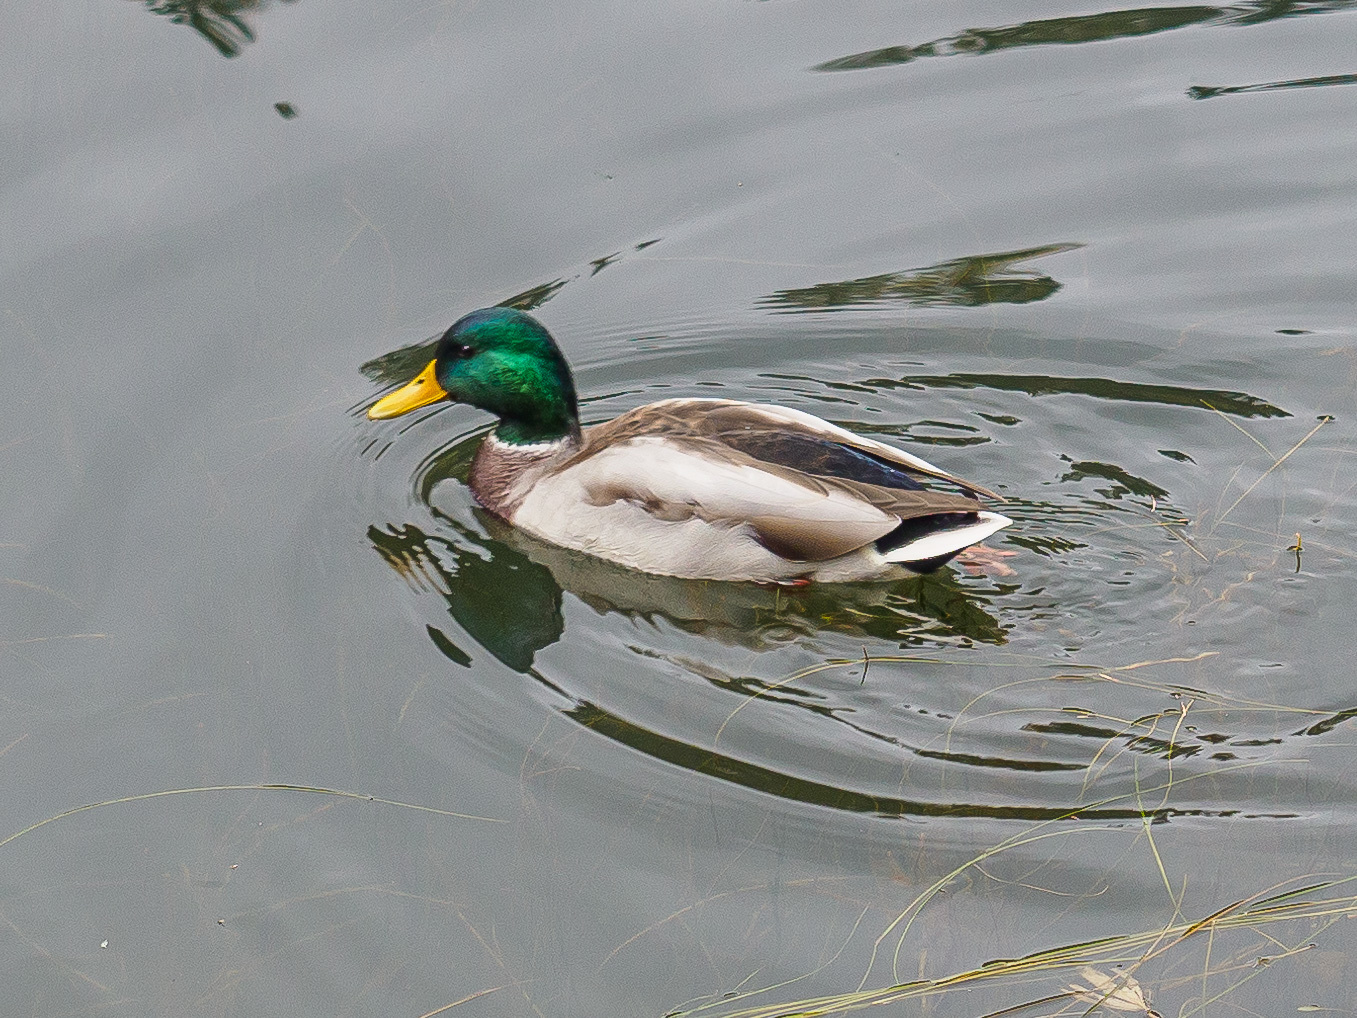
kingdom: Animalia
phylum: Chordata
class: Aves
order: Anseriformes
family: Anatidae
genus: Anas
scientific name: Anas platyrhynchos
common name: Mallard
